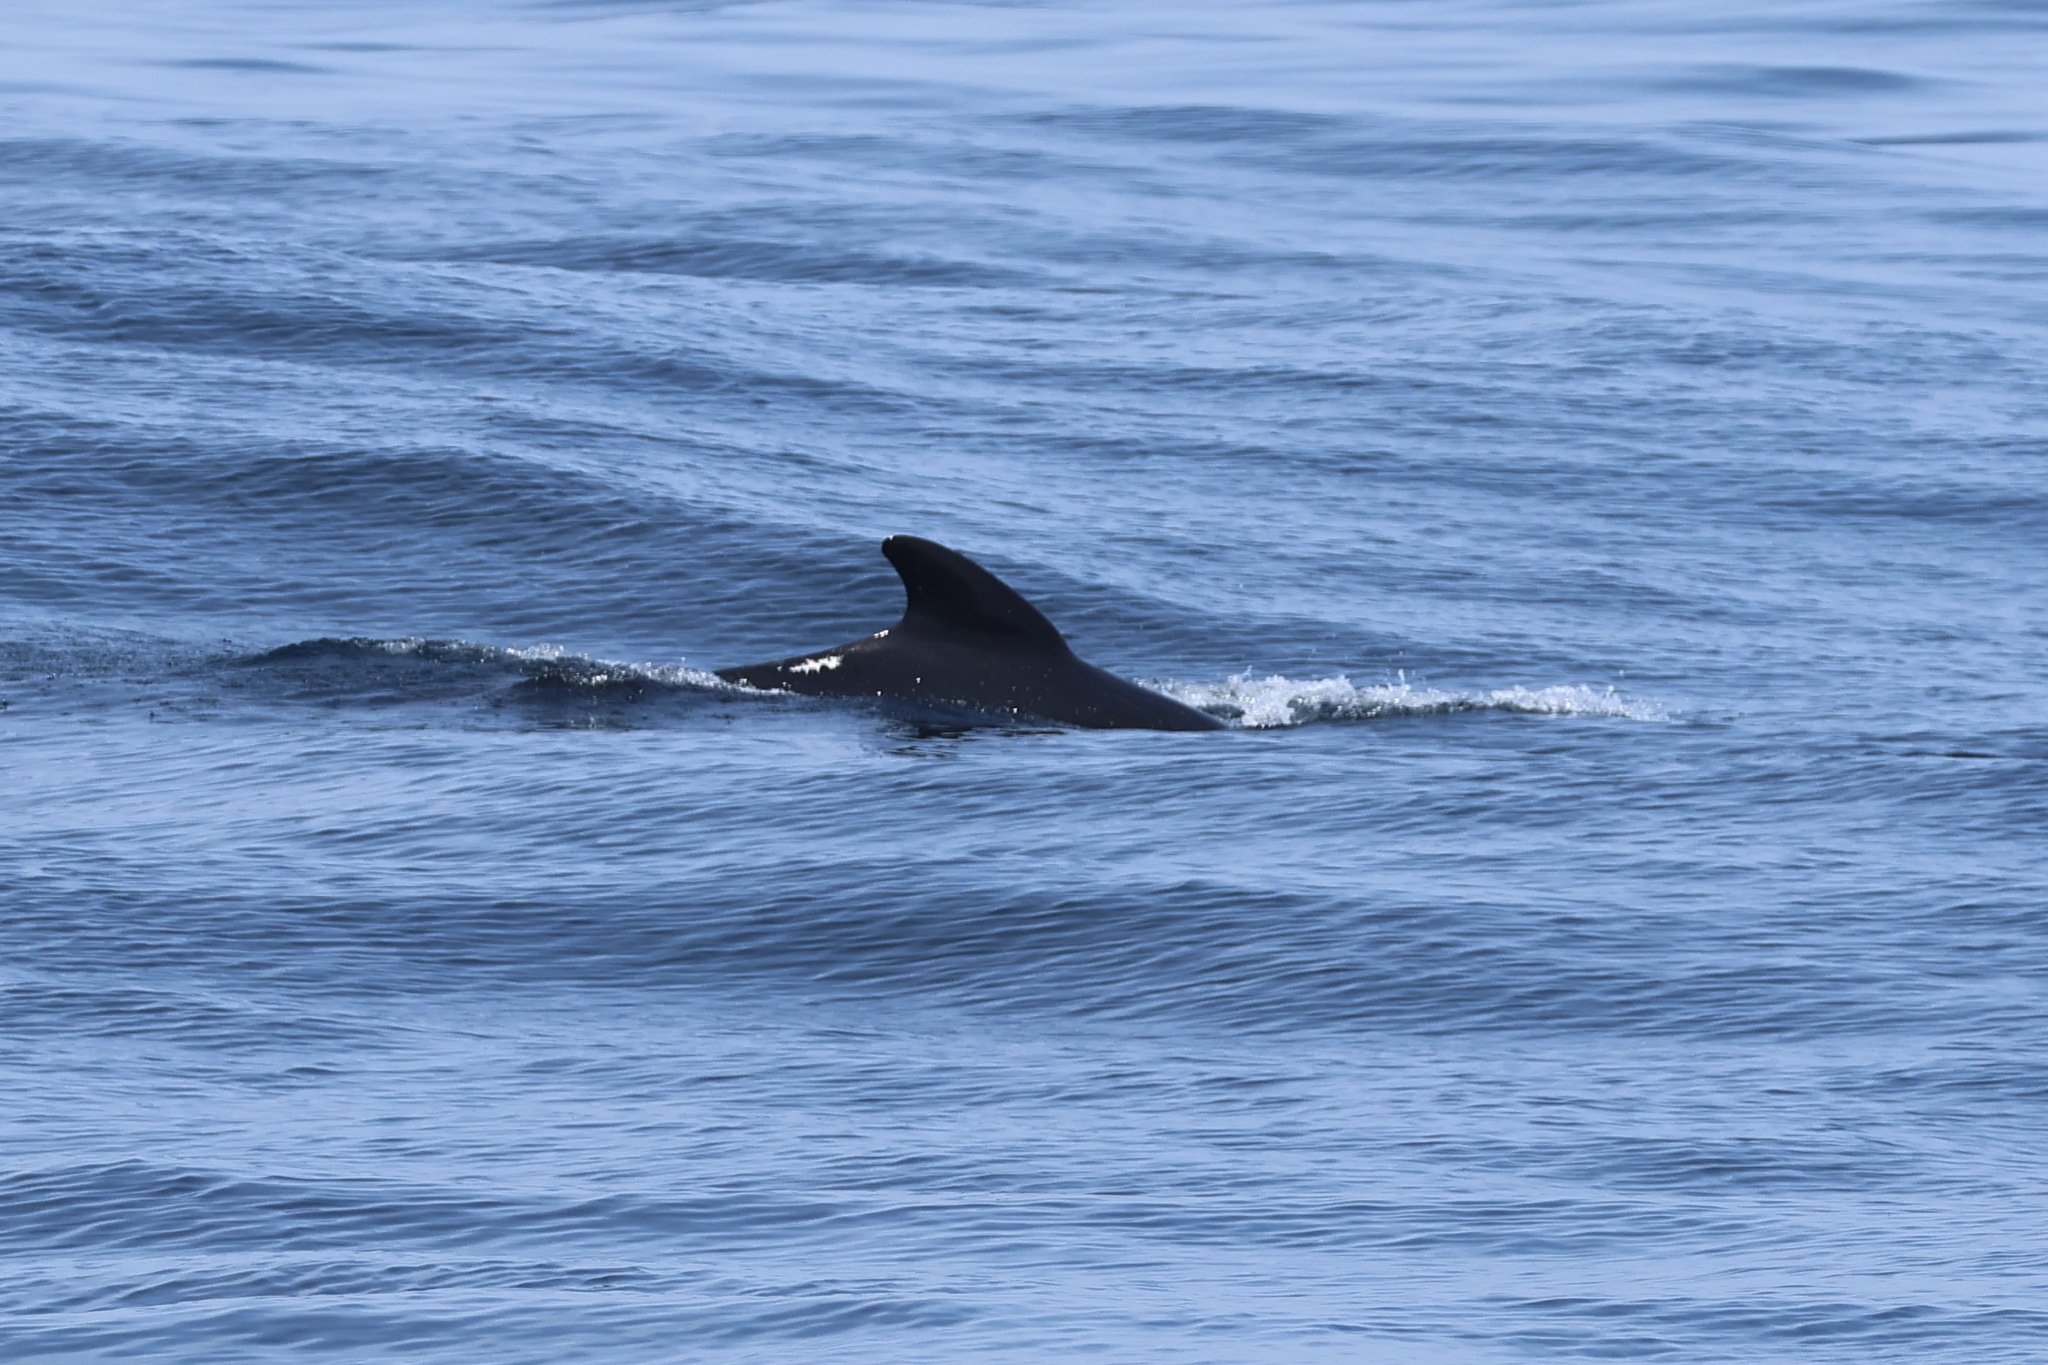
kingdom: Animalia
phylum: Chordata
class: Mammalia
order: Cetacea
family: Delphinidae
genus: Globicephala
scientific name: Globicephala melas
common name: Long-finned pilot whale
